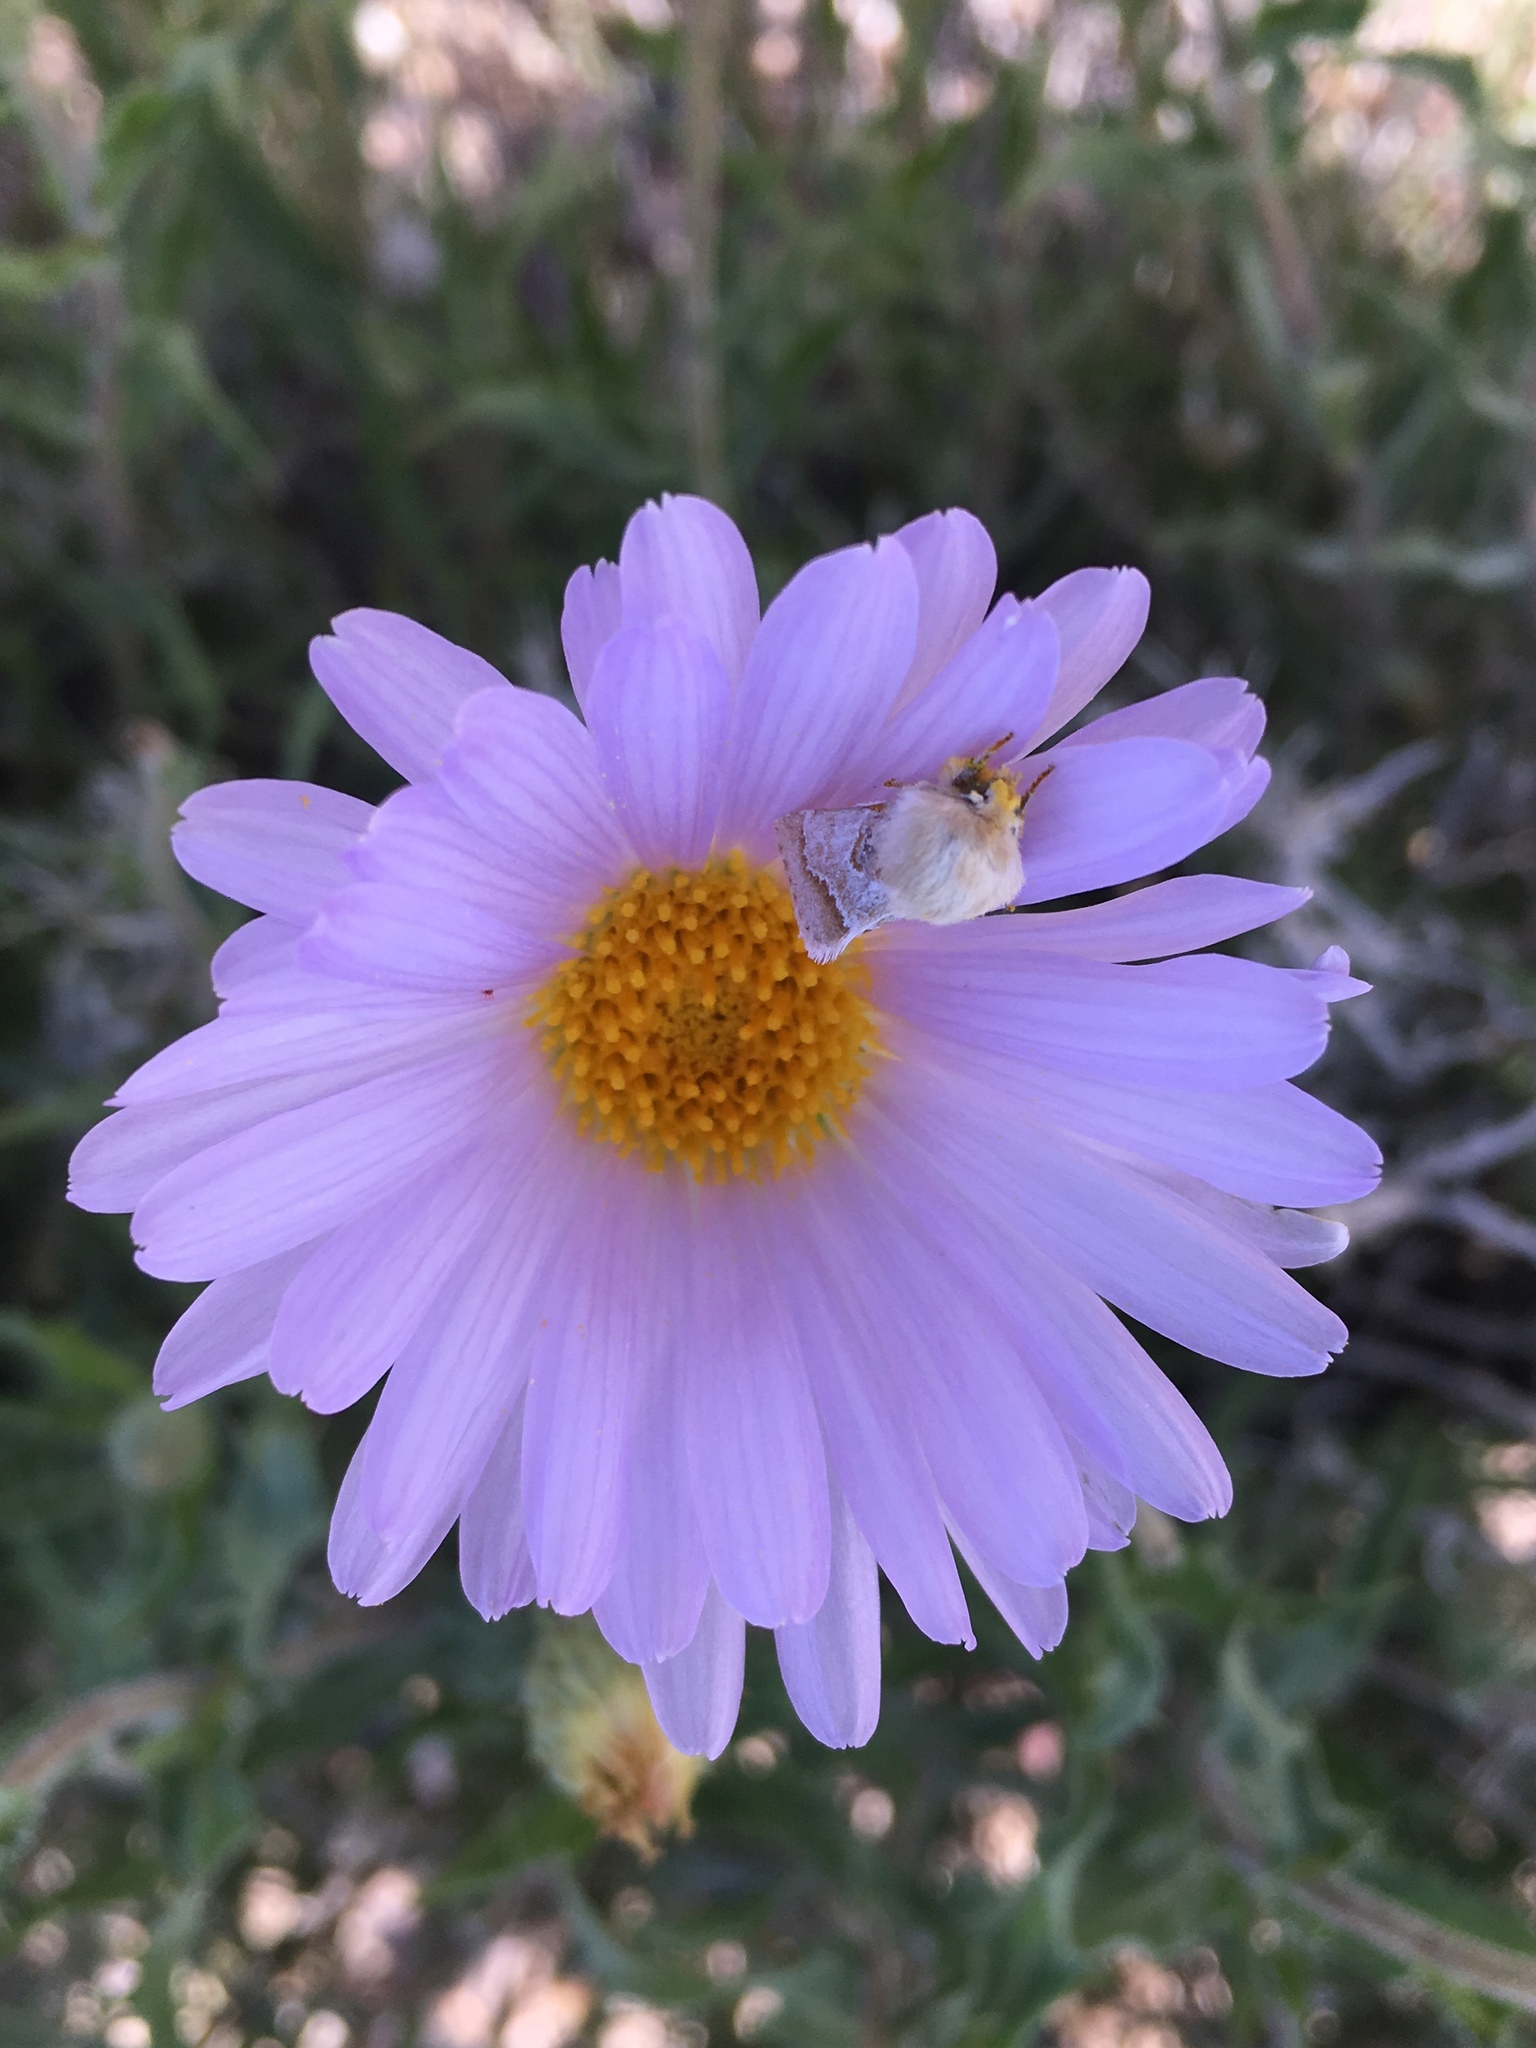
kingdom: Animalia
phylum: Arthropoda
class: Insecta
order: Lepidoptera
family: Noctuidae
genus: Schinia
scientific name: Schinia ligeae
